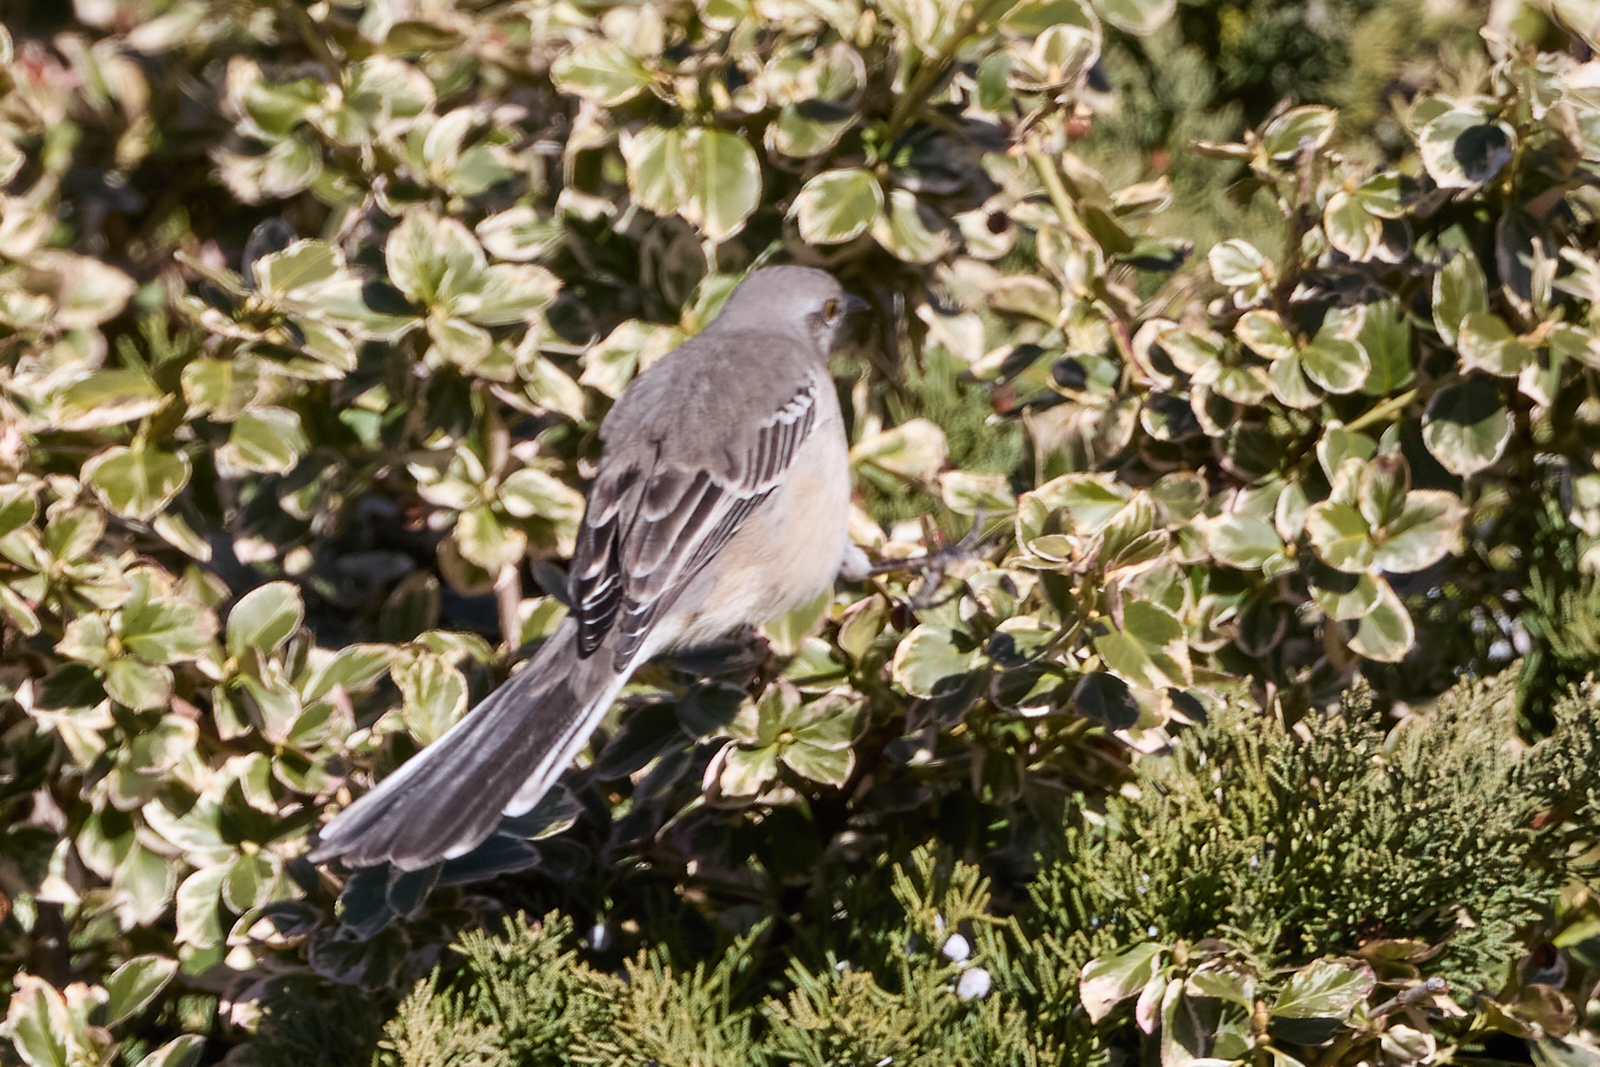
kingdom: Animalia
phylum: Chordata
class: Aves
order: Passeriformes
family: Mimidae
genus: Mimus
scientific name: Mimus polyglottos
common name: Northern mockingbird
